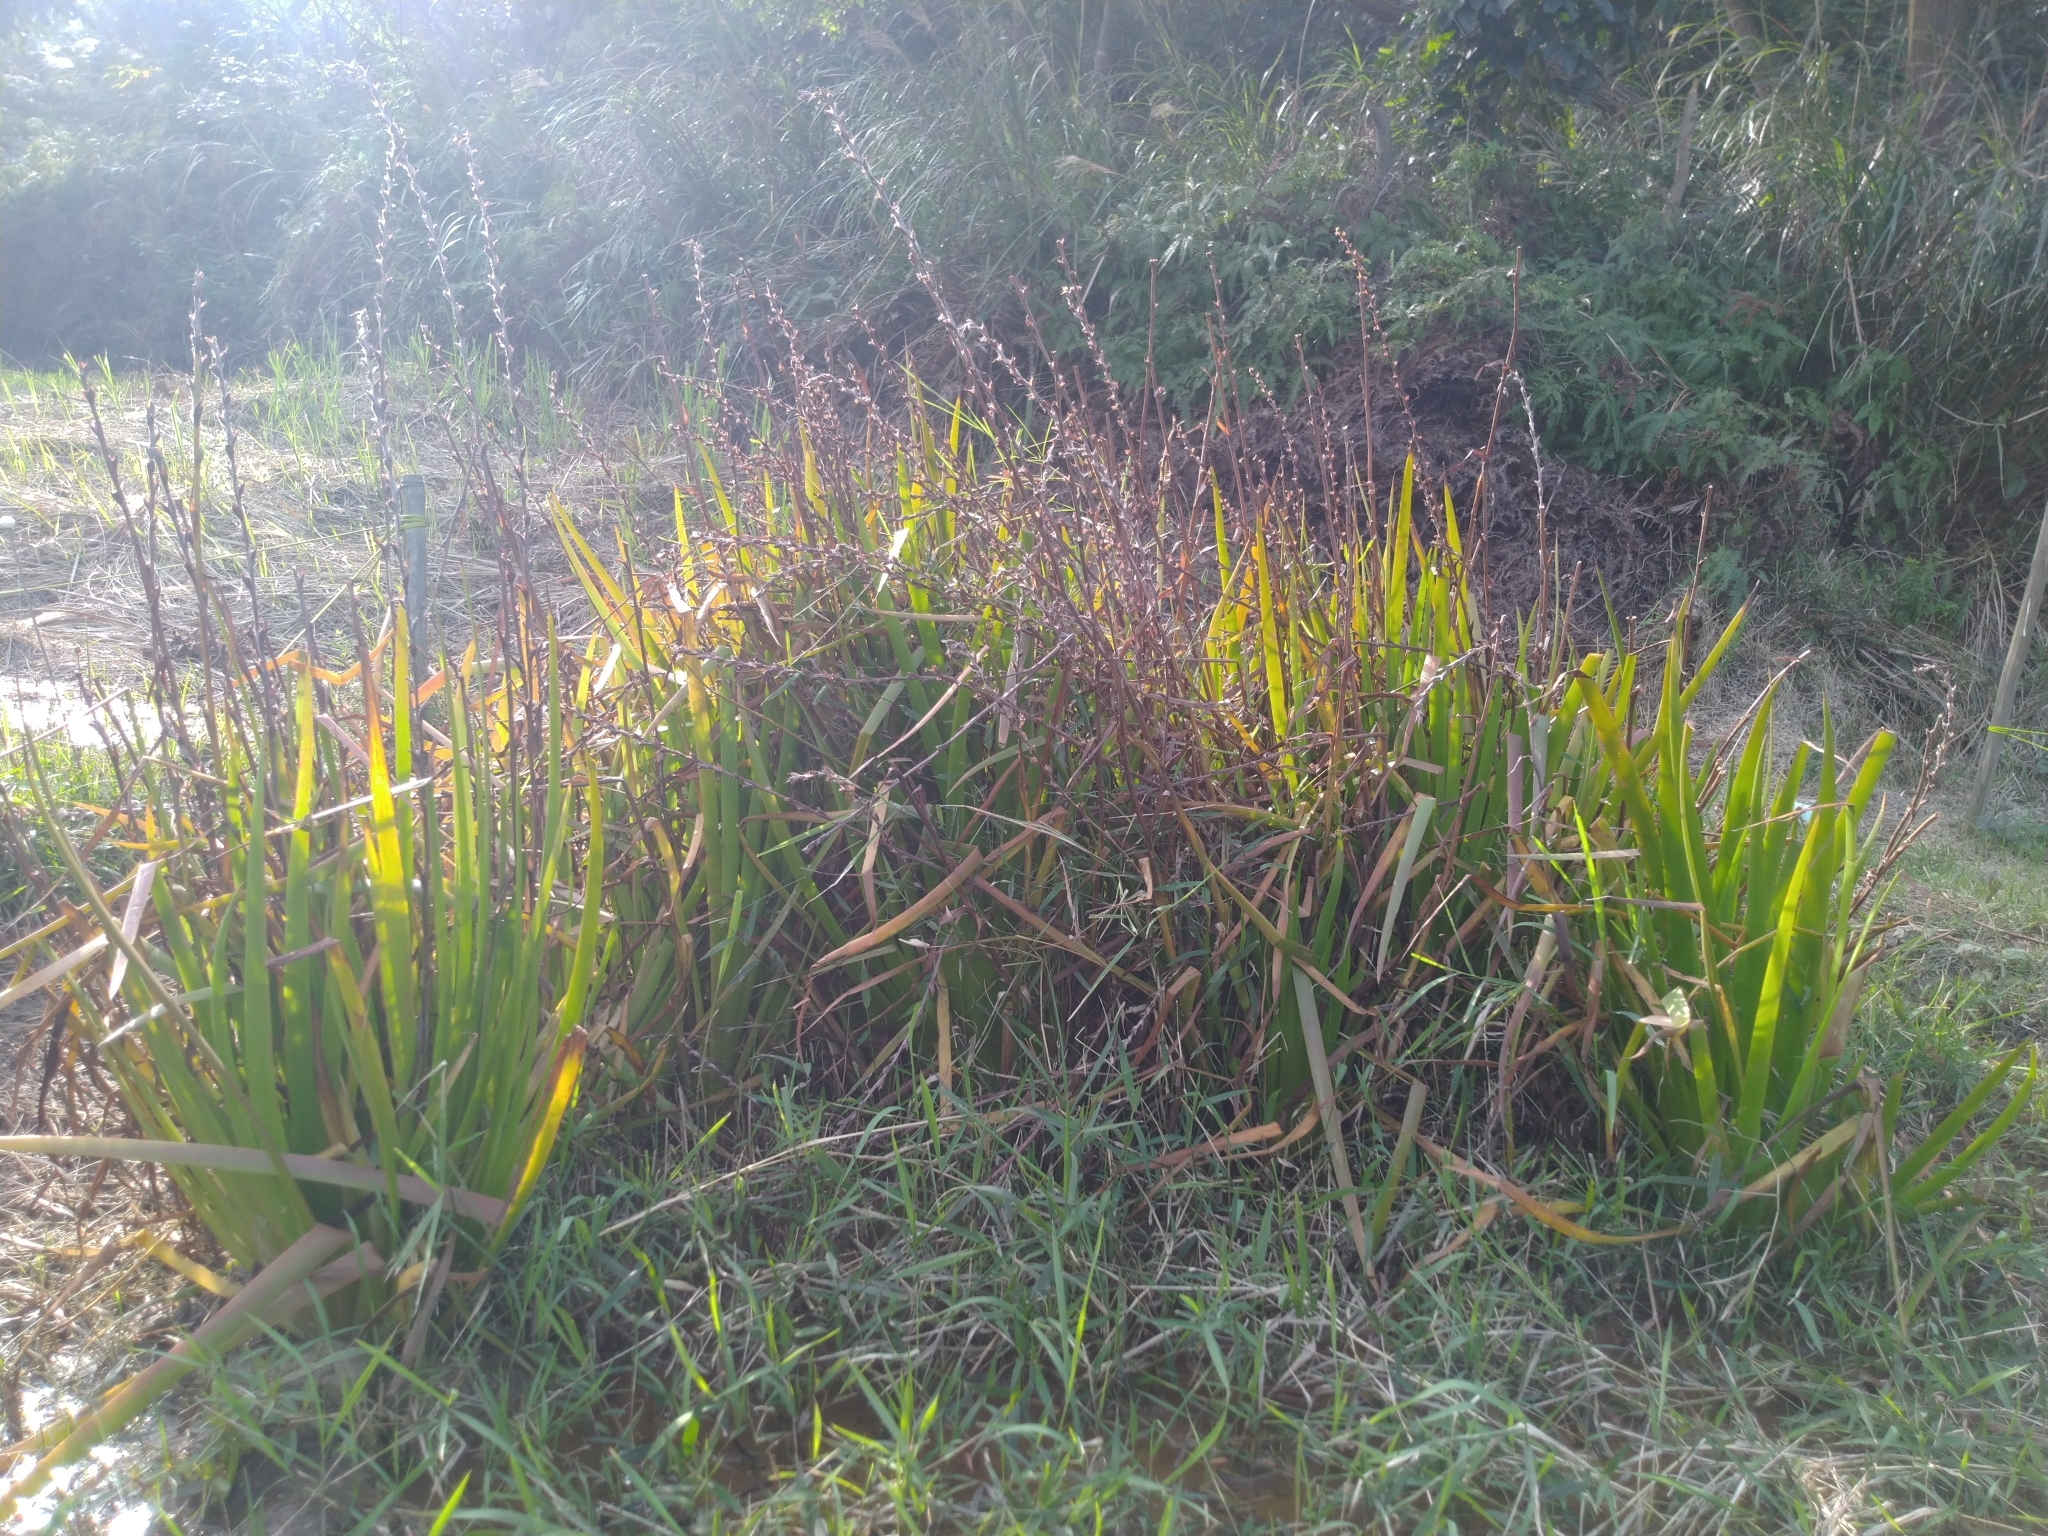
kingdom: Plantae
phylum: Tracheophyta
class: Liliopsida
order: Commelinales
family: Philydraceae
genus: Philydrum
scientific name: Philydrum lanuginosum
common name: Woolly frog's mouth
